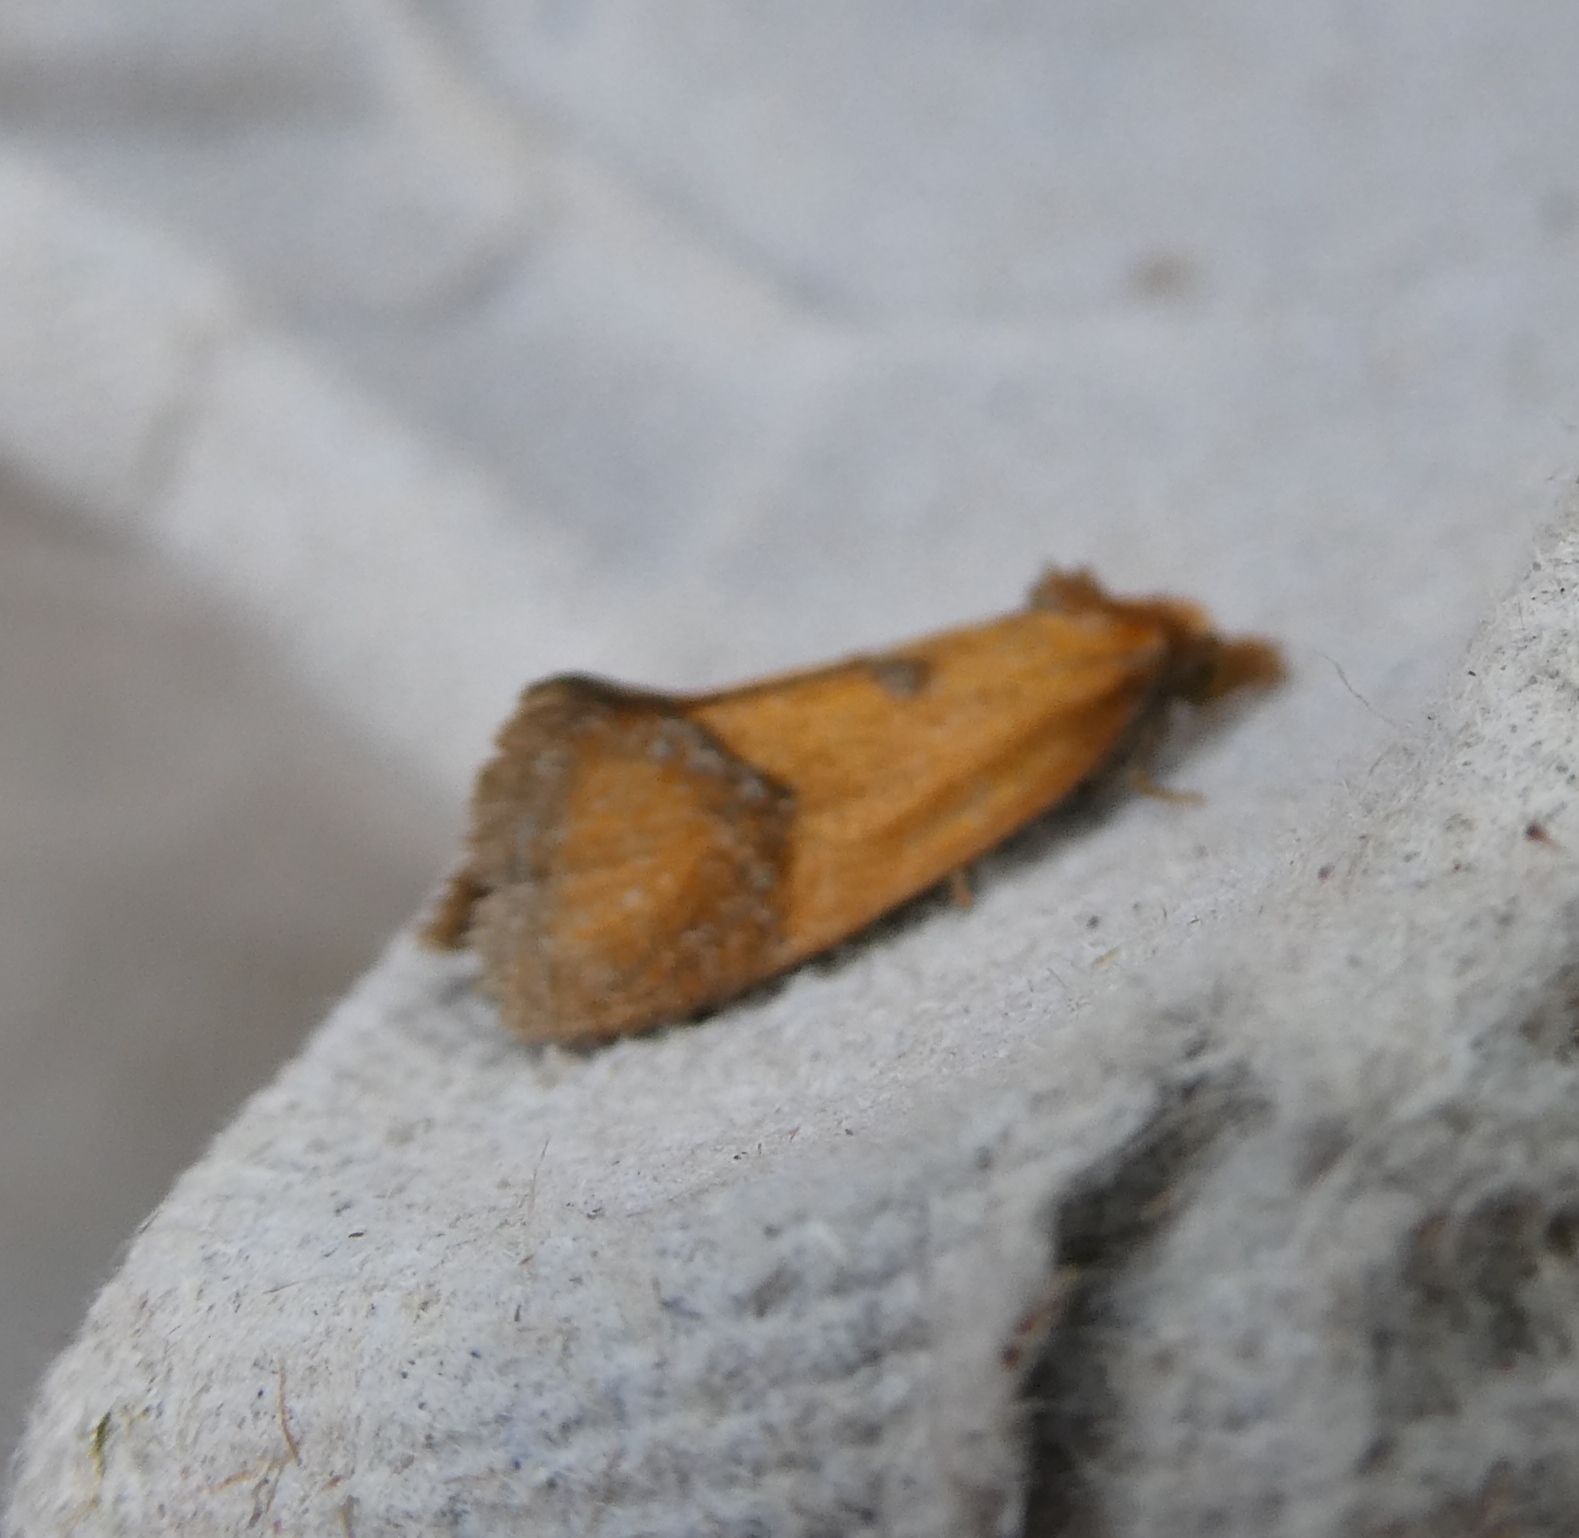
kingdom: Animalia
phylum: Arthropoda
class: Insecta
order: Lepidoptera
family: Tortricidae
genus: Agapeta
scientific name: Agapeta zoegana
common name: Sulfur knapweed root moth
